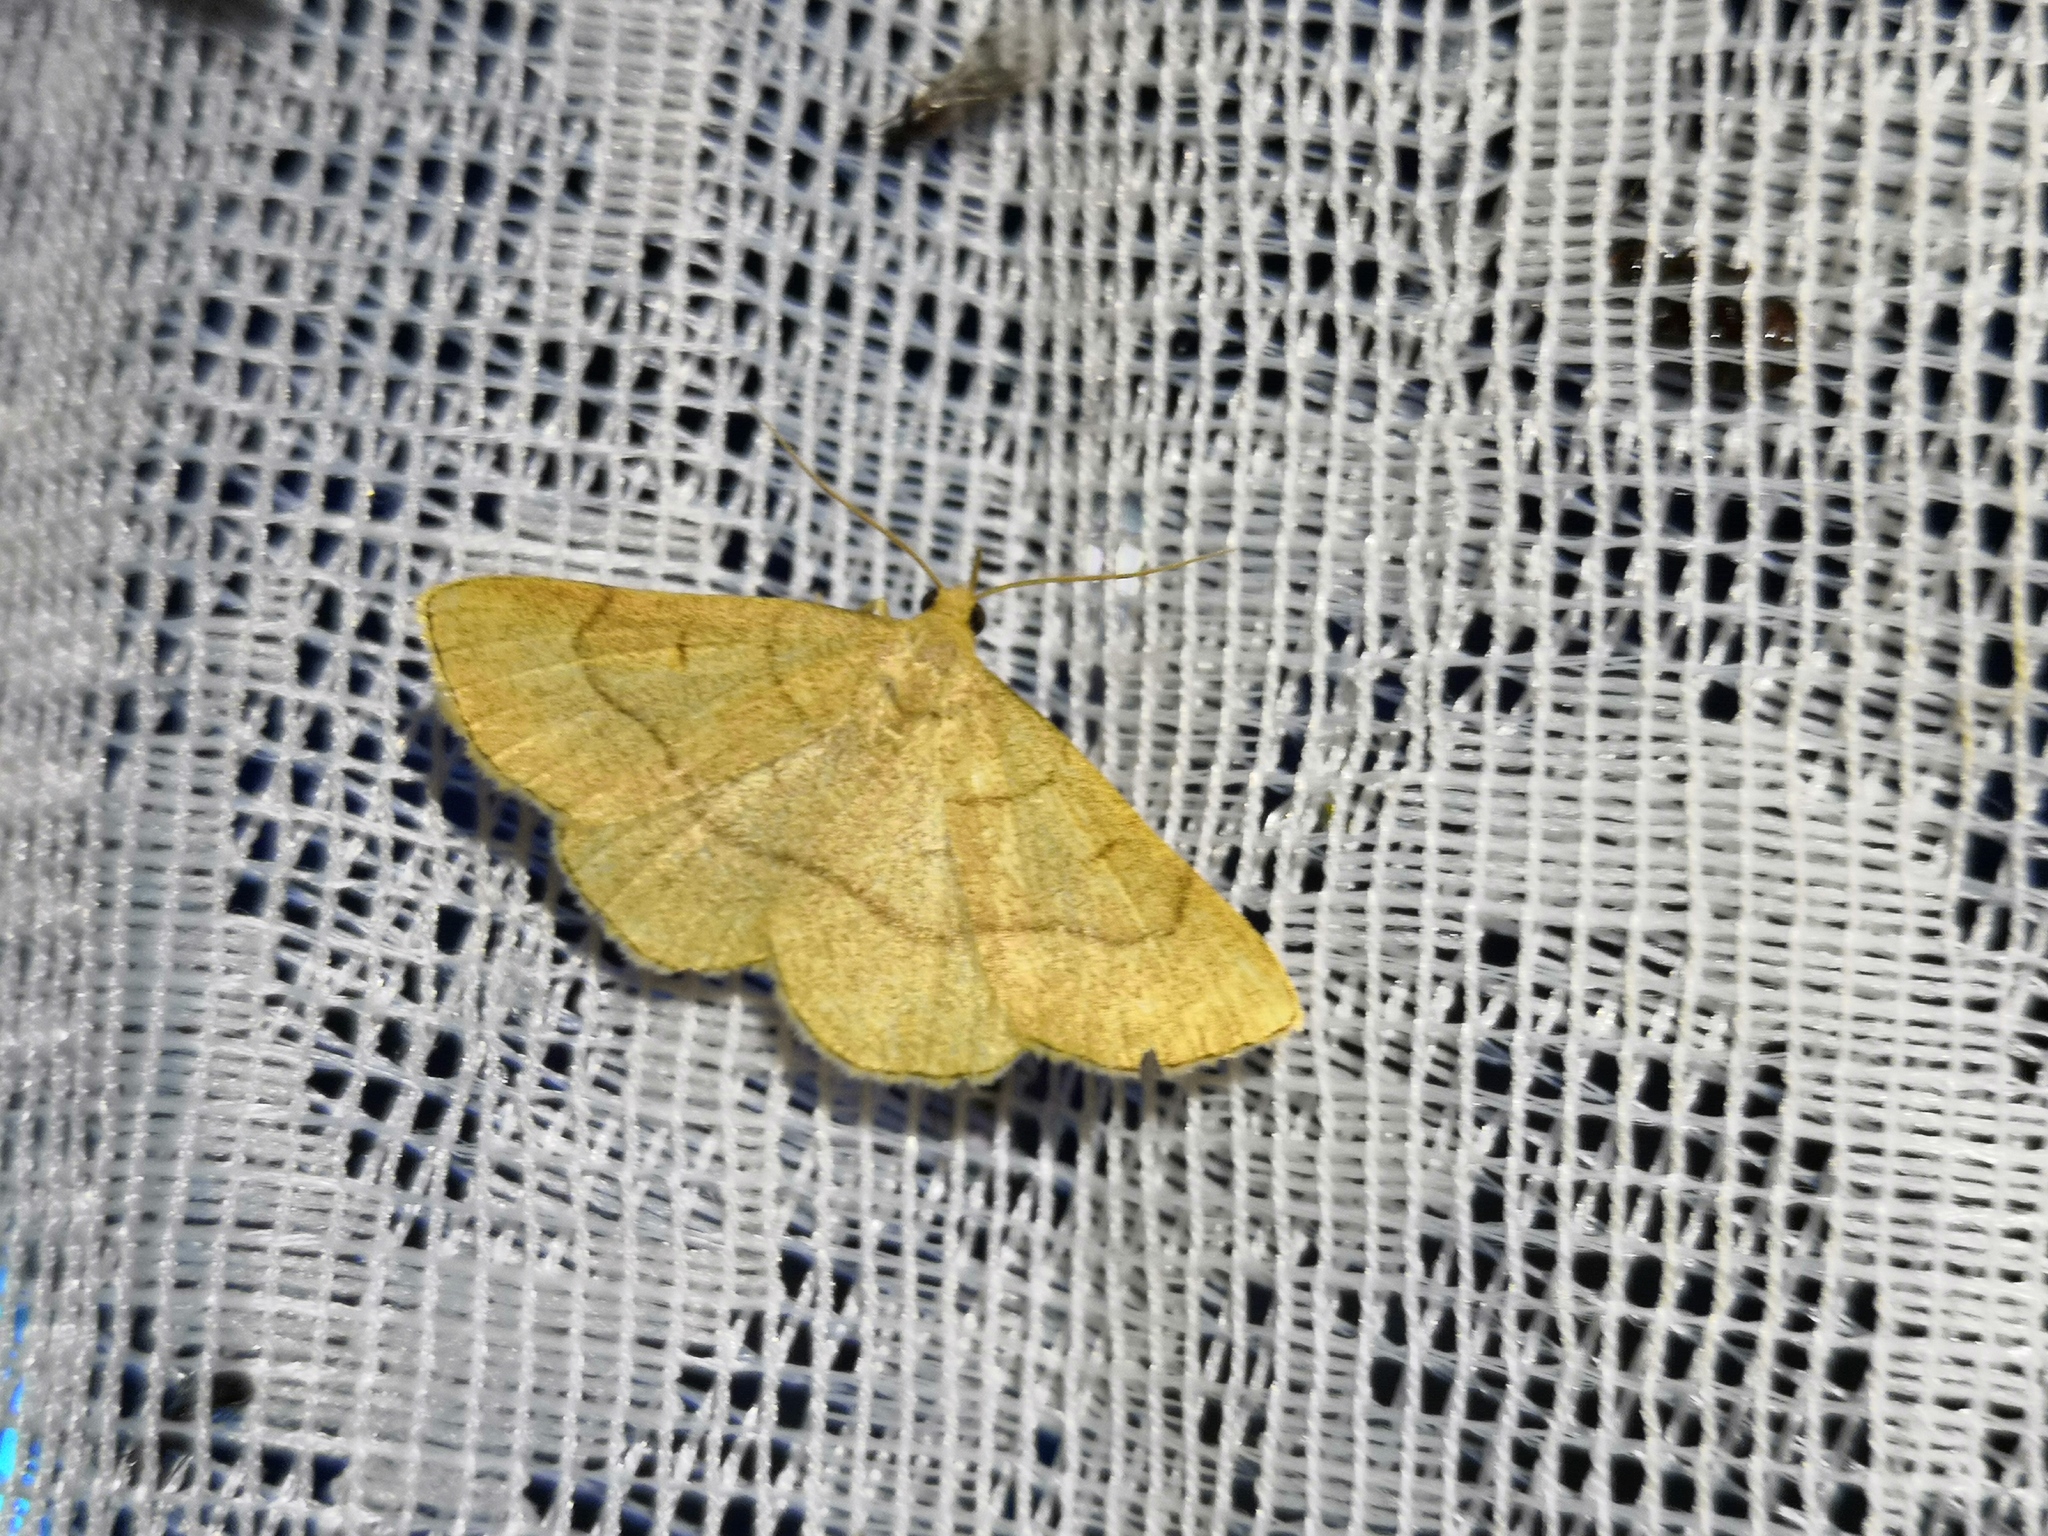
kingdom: Animalia
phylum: Arthropoda
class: Insecta
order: Lepidoptera
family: Erebidae
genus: Paracolax
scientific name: Paracolax tristalis
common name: Clay fan-foot
